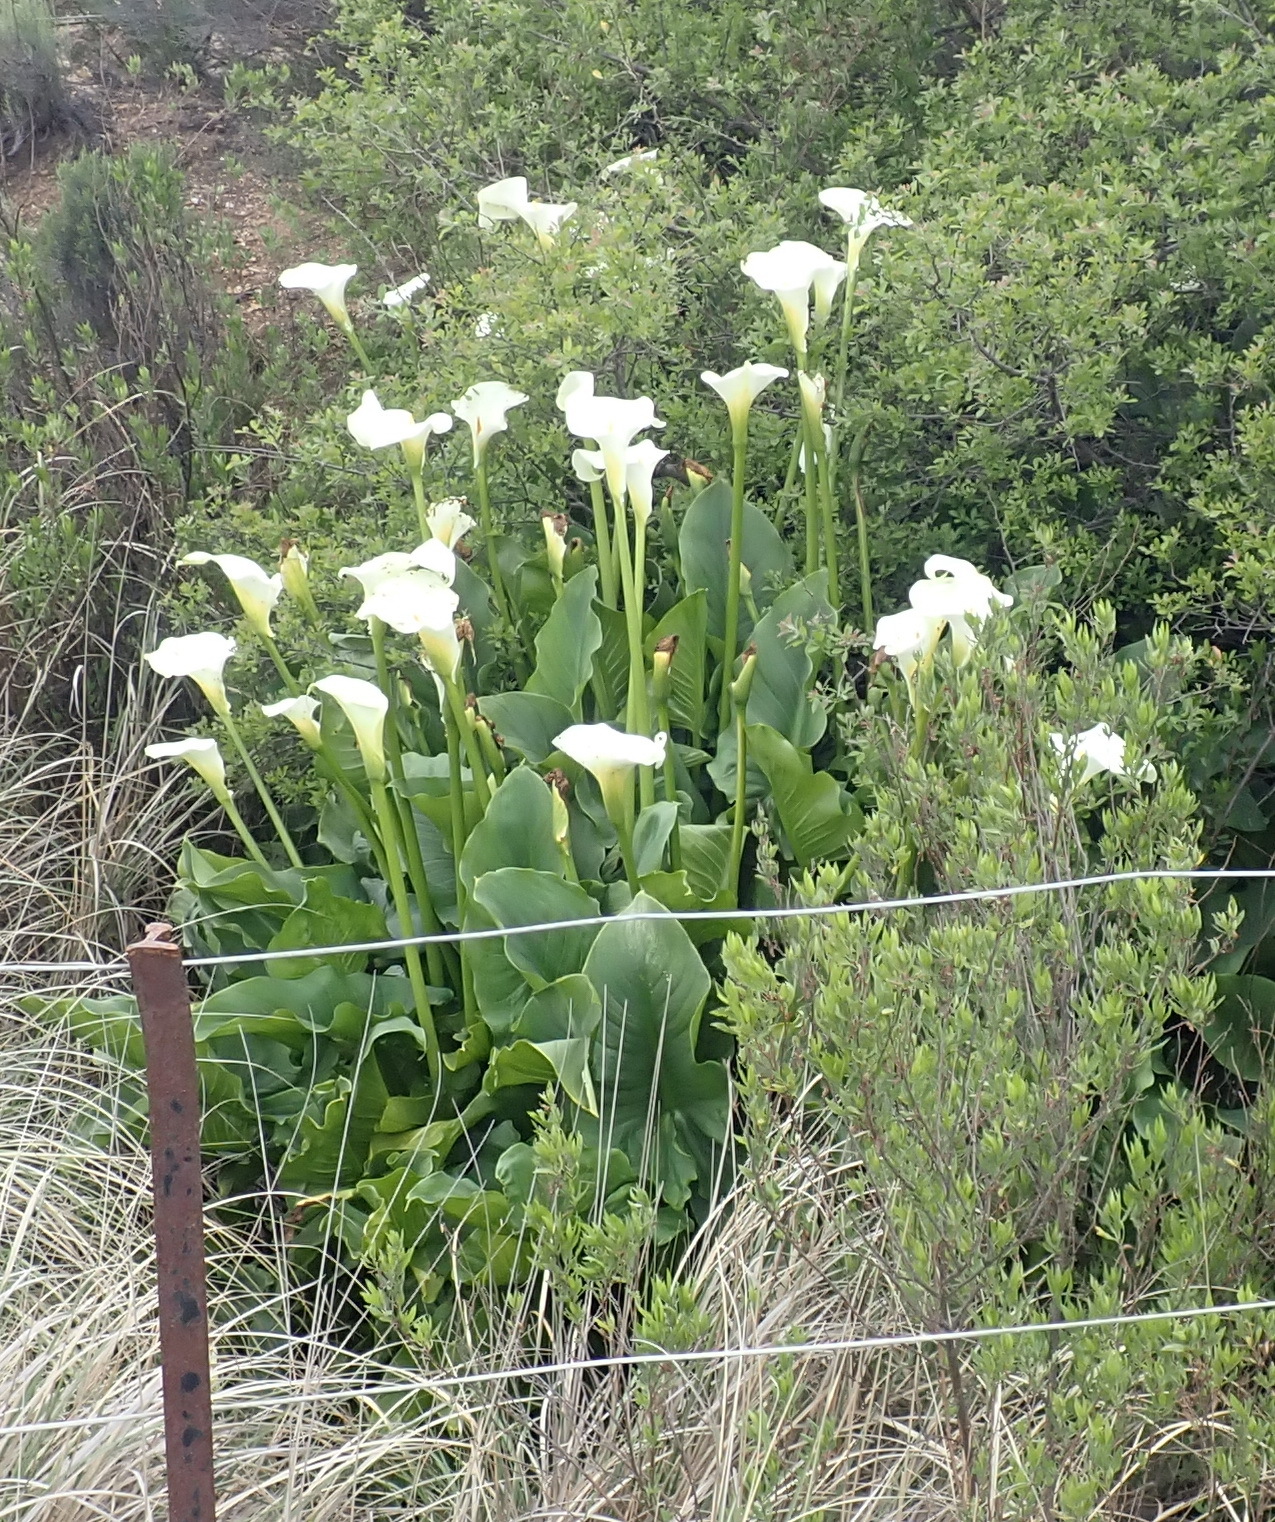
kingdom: Plantae
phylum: Tracheophyta
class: Liliopsida
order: Alismatales
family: Araceae
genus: Zantedeschia
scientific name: Zantedeschia aethiopica
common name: Altar-lily
